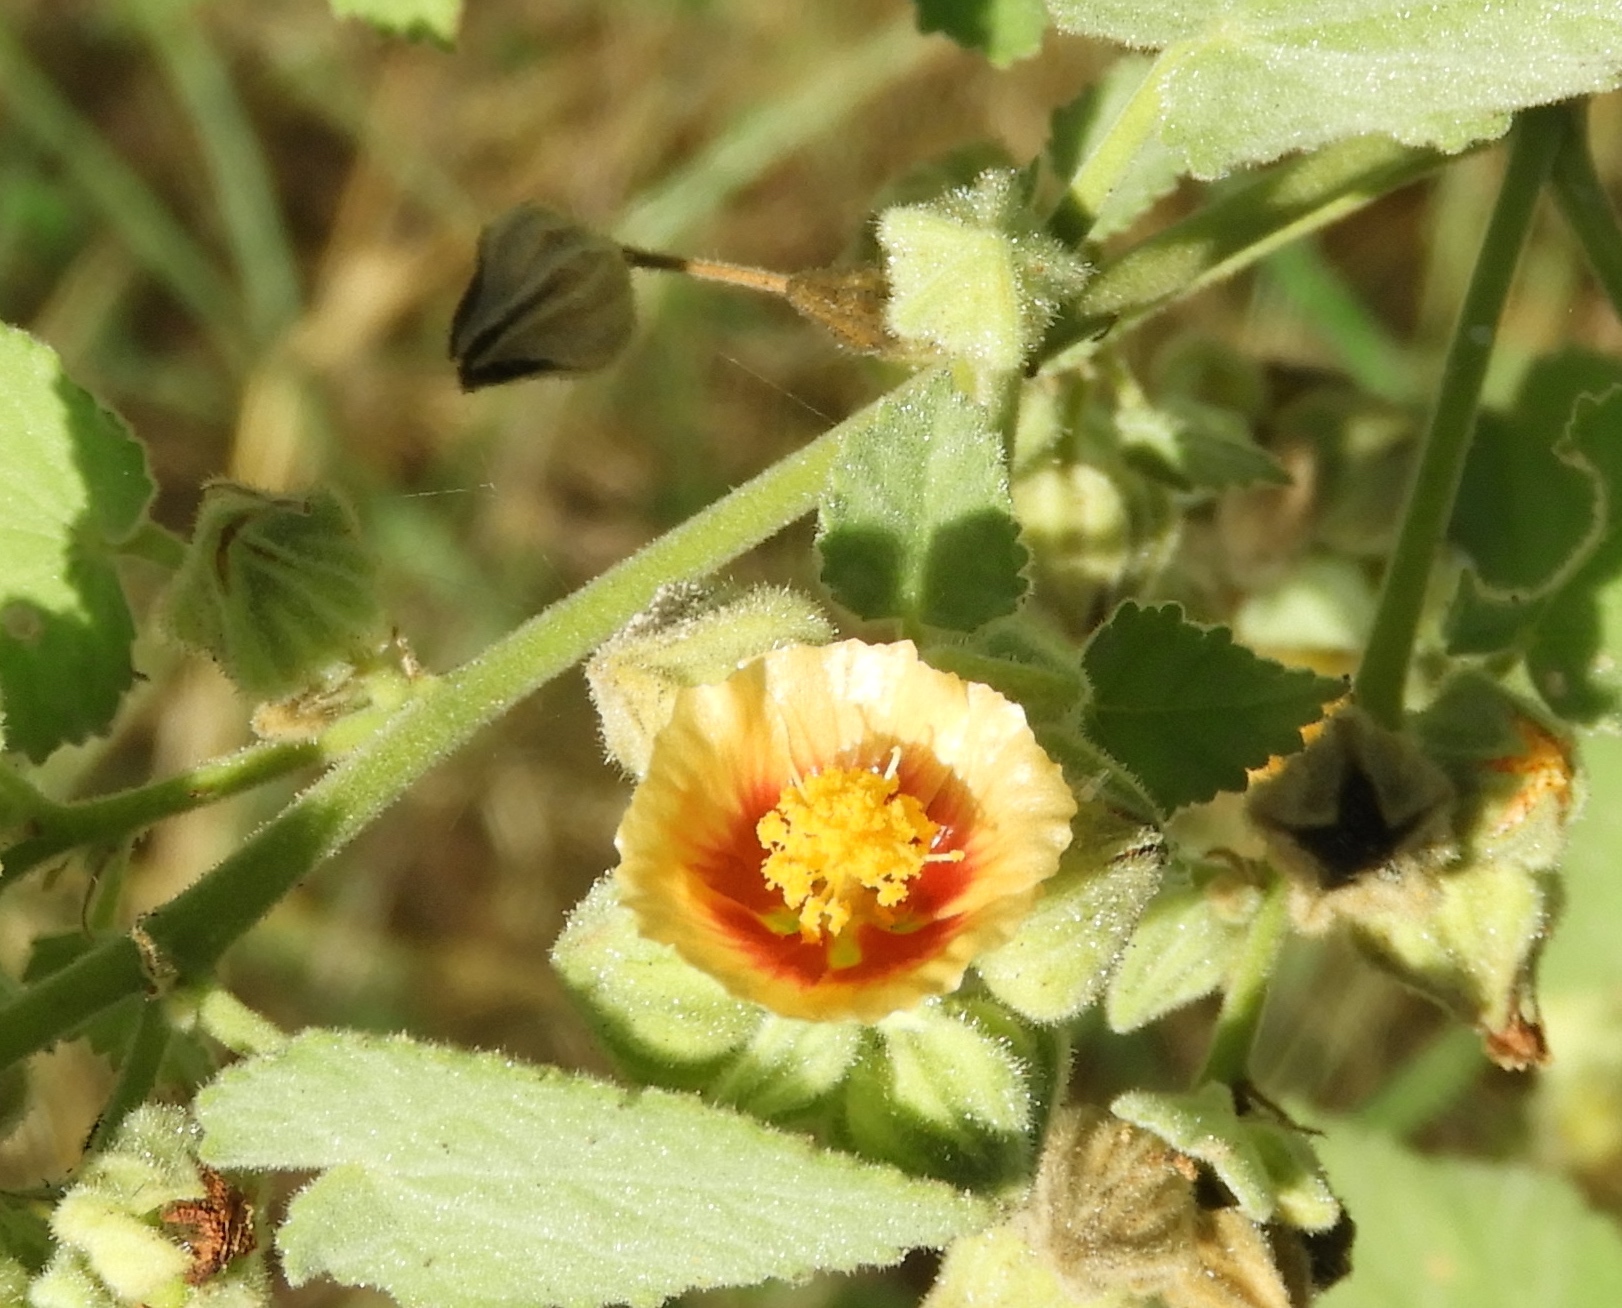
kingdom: Plantae
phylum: Tracheophyta
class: Magnoliopsida
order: Malvales
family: Malvaceae
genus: Sida
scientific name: Sida cordifolia
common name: Ilima
